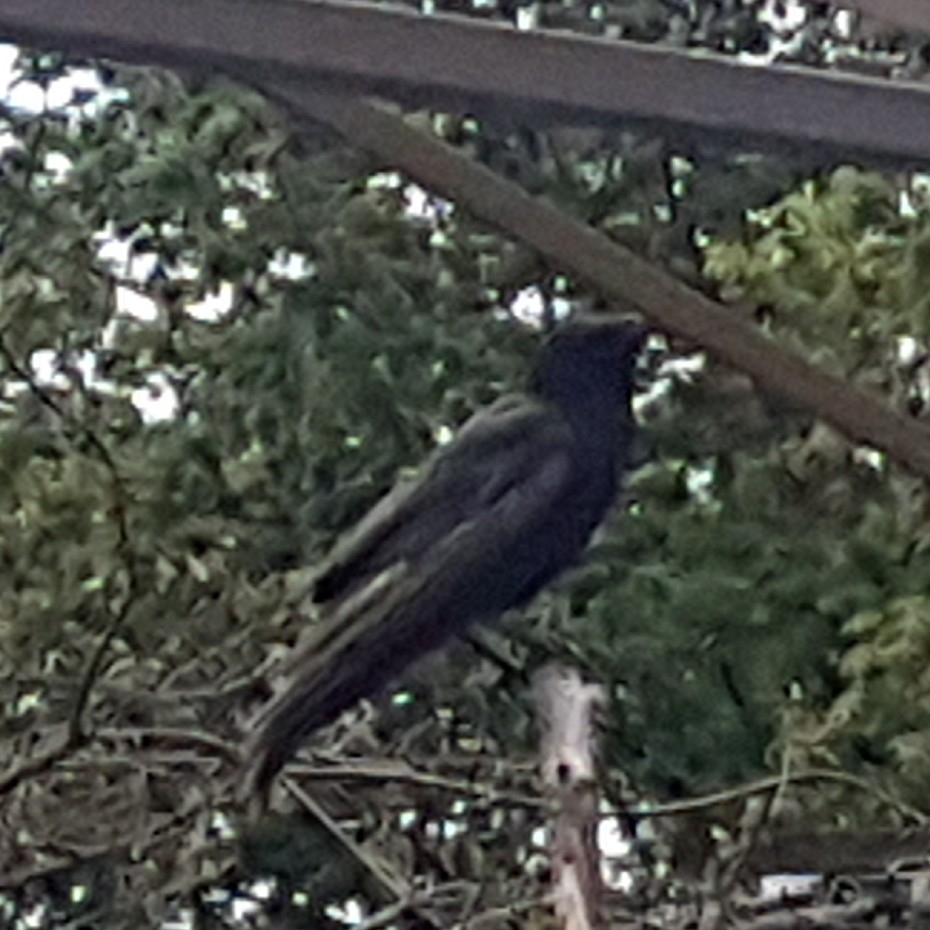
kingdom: Animalia
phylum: Chordata
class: Aves
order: Passeriformes
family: Corvidae
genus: Corvus
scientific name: Corvus brachyrhynchos
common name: American crow
